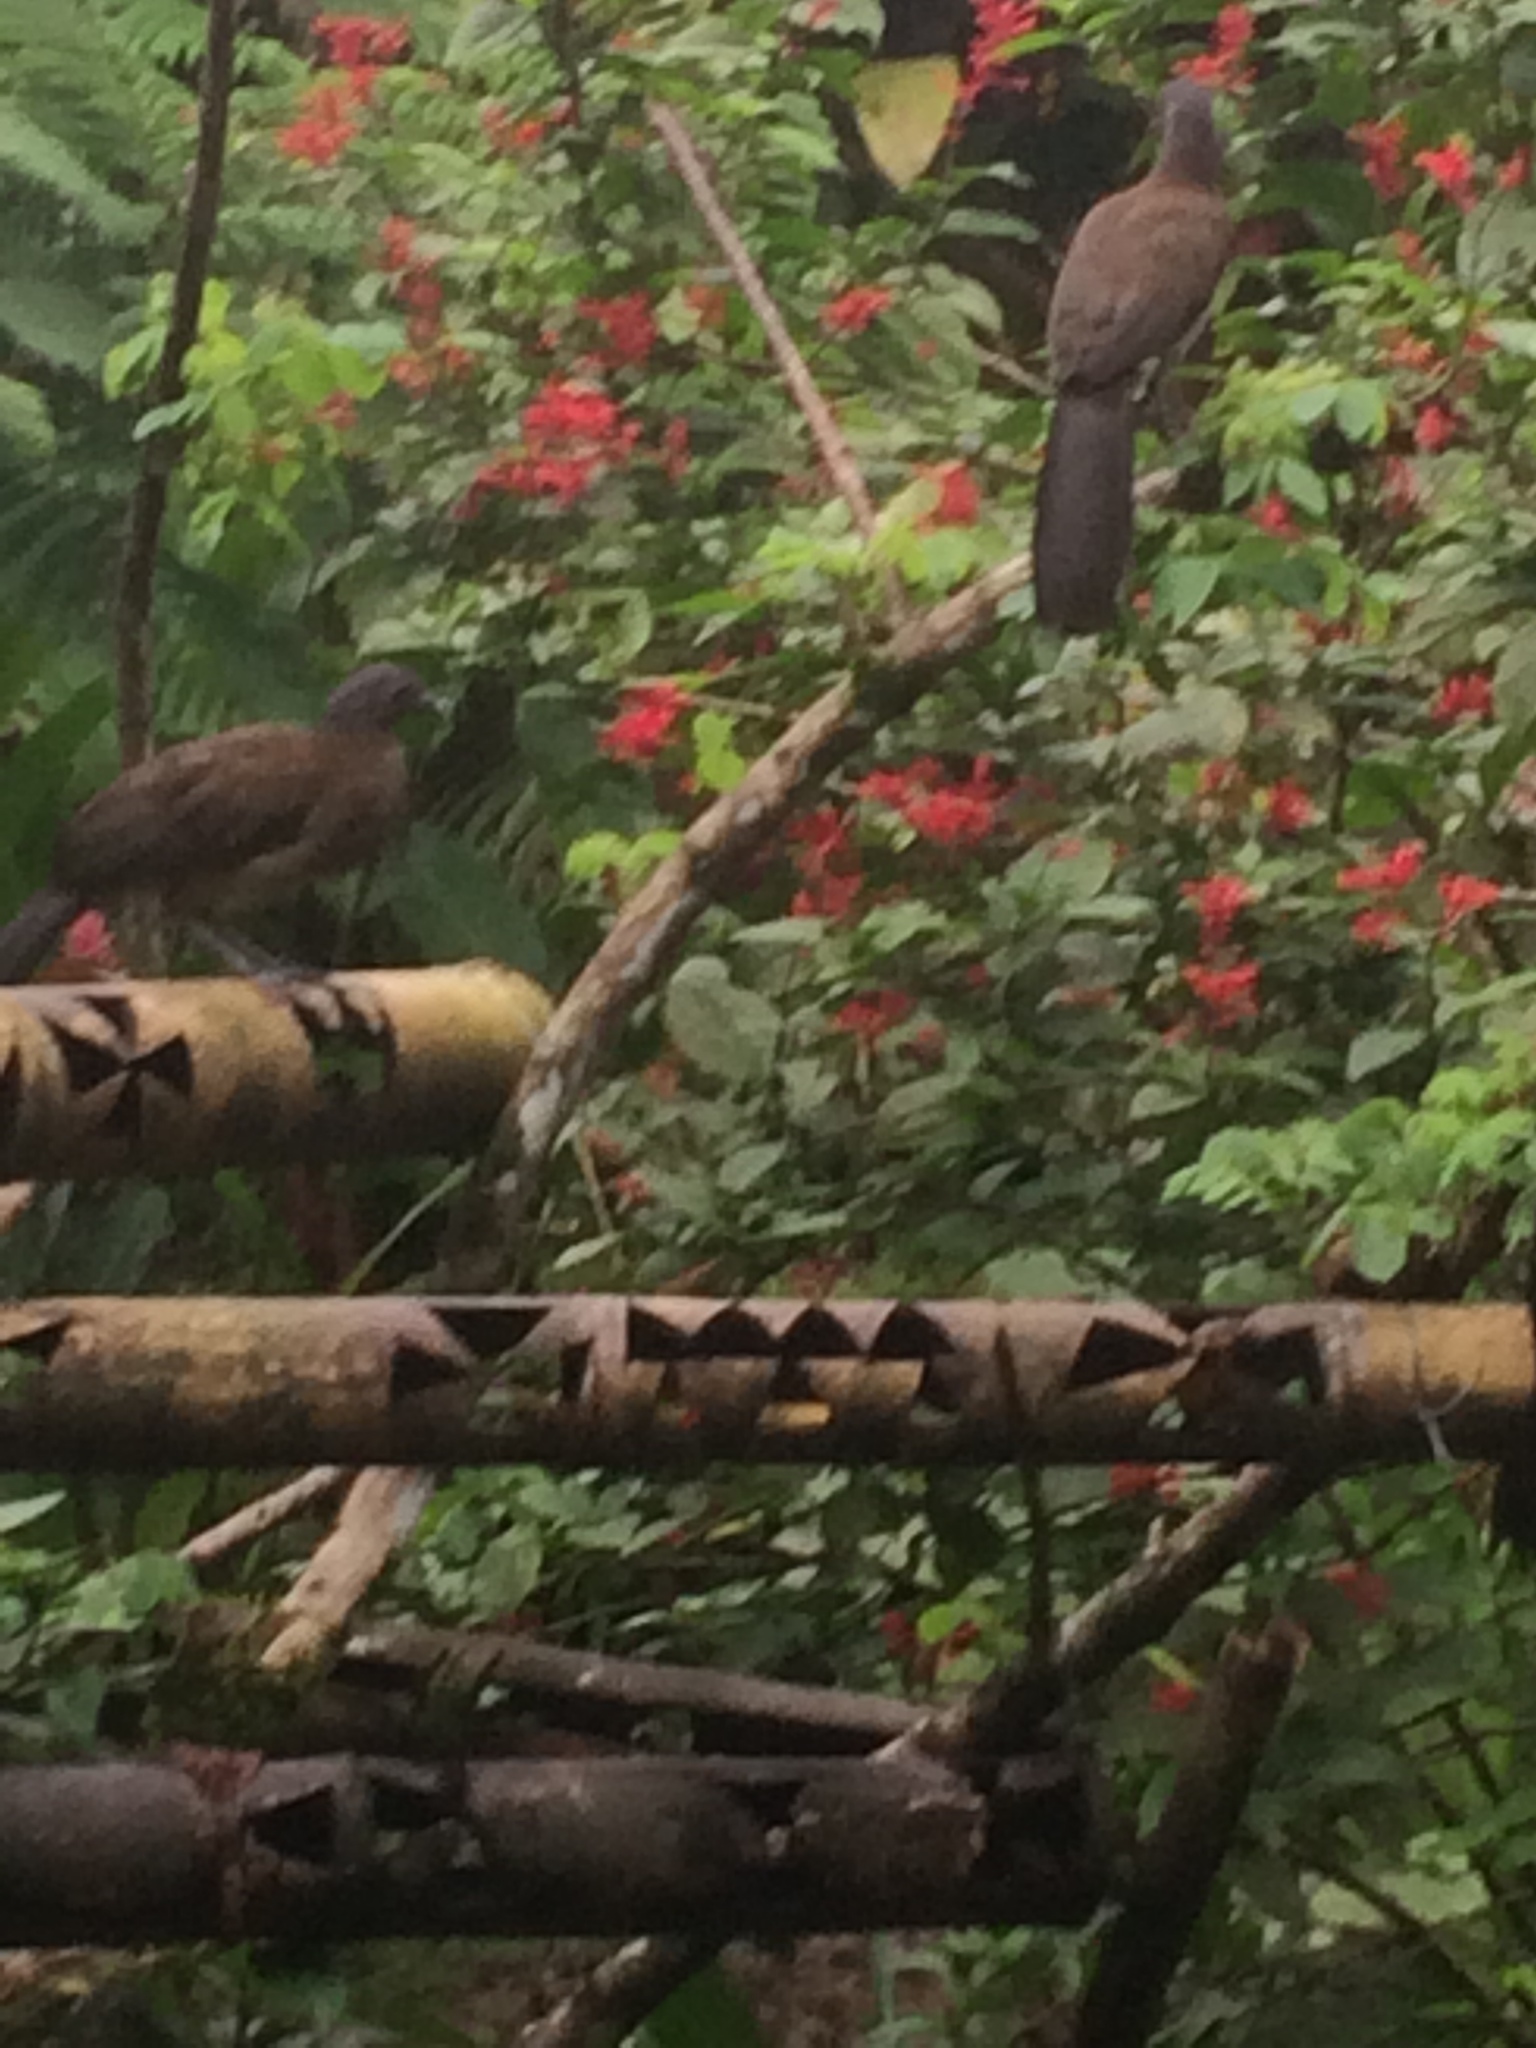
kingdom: Animalia
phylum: Chordata
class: Aves
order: Galliformes
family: Cracidae
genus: Ortalis
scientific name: Ortalis cinereiceps
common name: Grey-headed chachalaca
